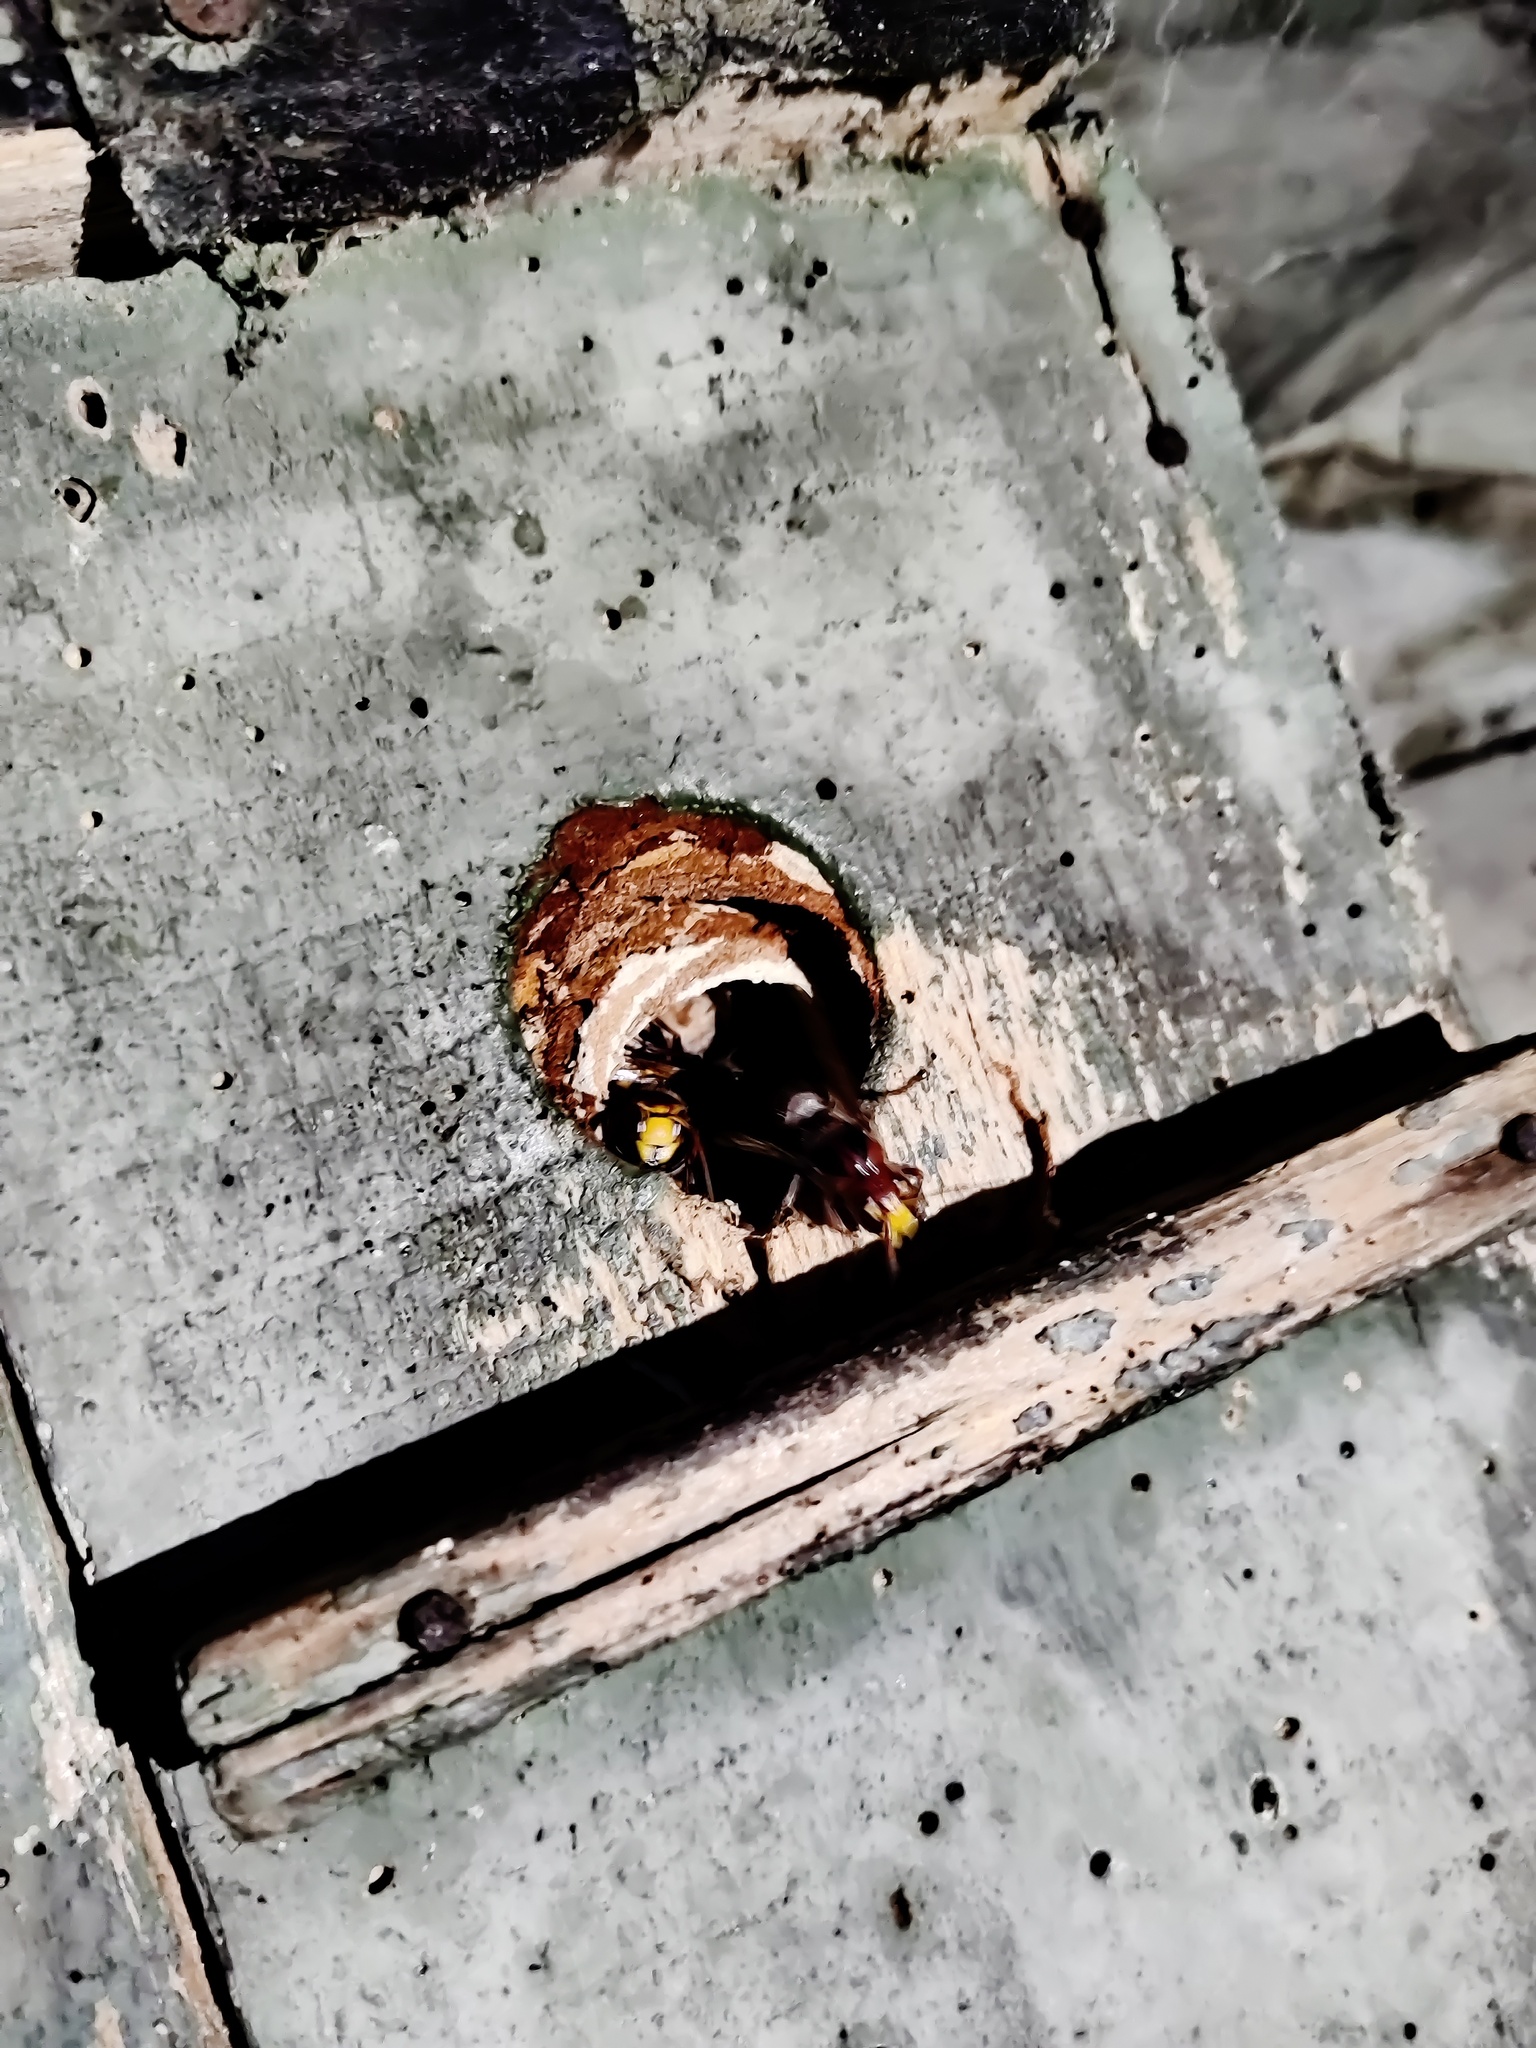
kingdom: Animalia
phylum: Arthropoda
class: Insecta
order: Hymenoptera
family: Vespidae
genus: Vespa
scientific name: Vespa crabro
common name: Hornet
